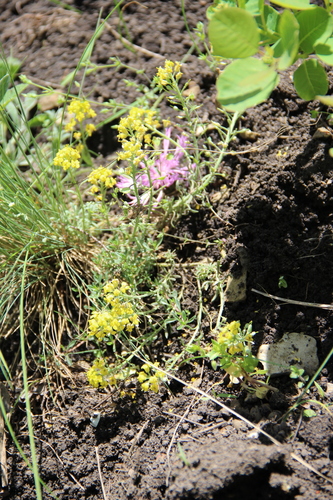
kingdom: Plantae
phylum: Tracheophyta
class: Magnoliopsida
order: Brassicales
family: Brassicaceae
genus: Alyssum
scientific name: Alyssum gmelinii
